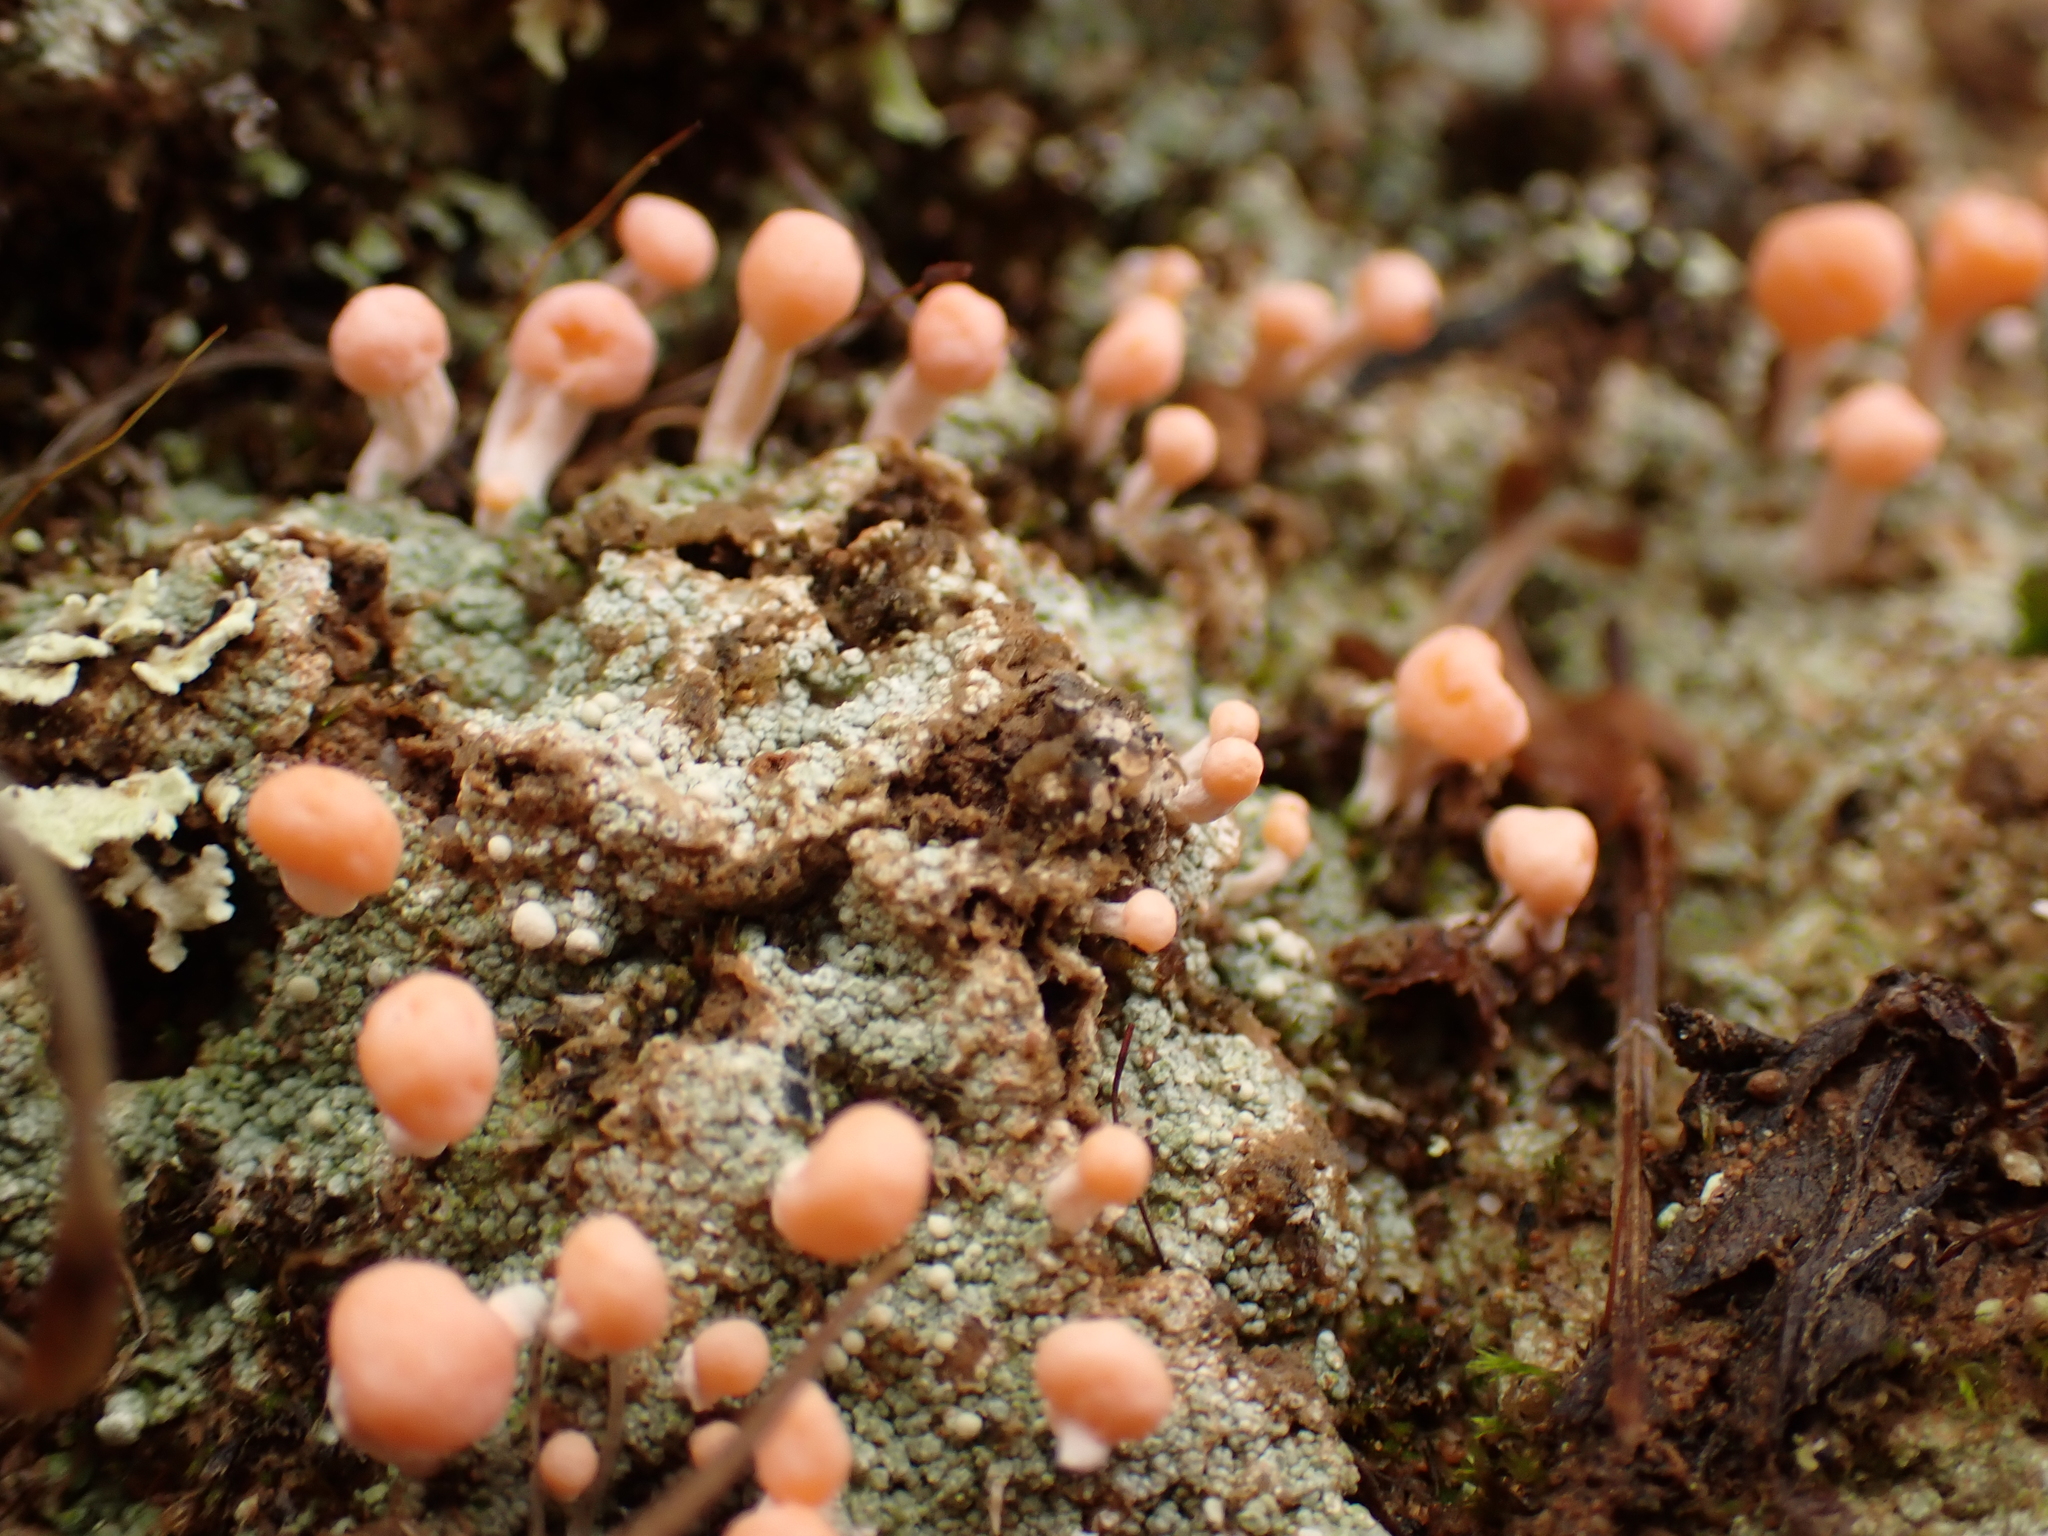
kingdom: Fungi
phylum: Ascomycota
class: Lecanoromycetes
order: Pertusariales
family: Icmadophilaceae
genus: Dibaeis
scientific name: Dibaeis baeomyces
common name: Pink earth lichen
